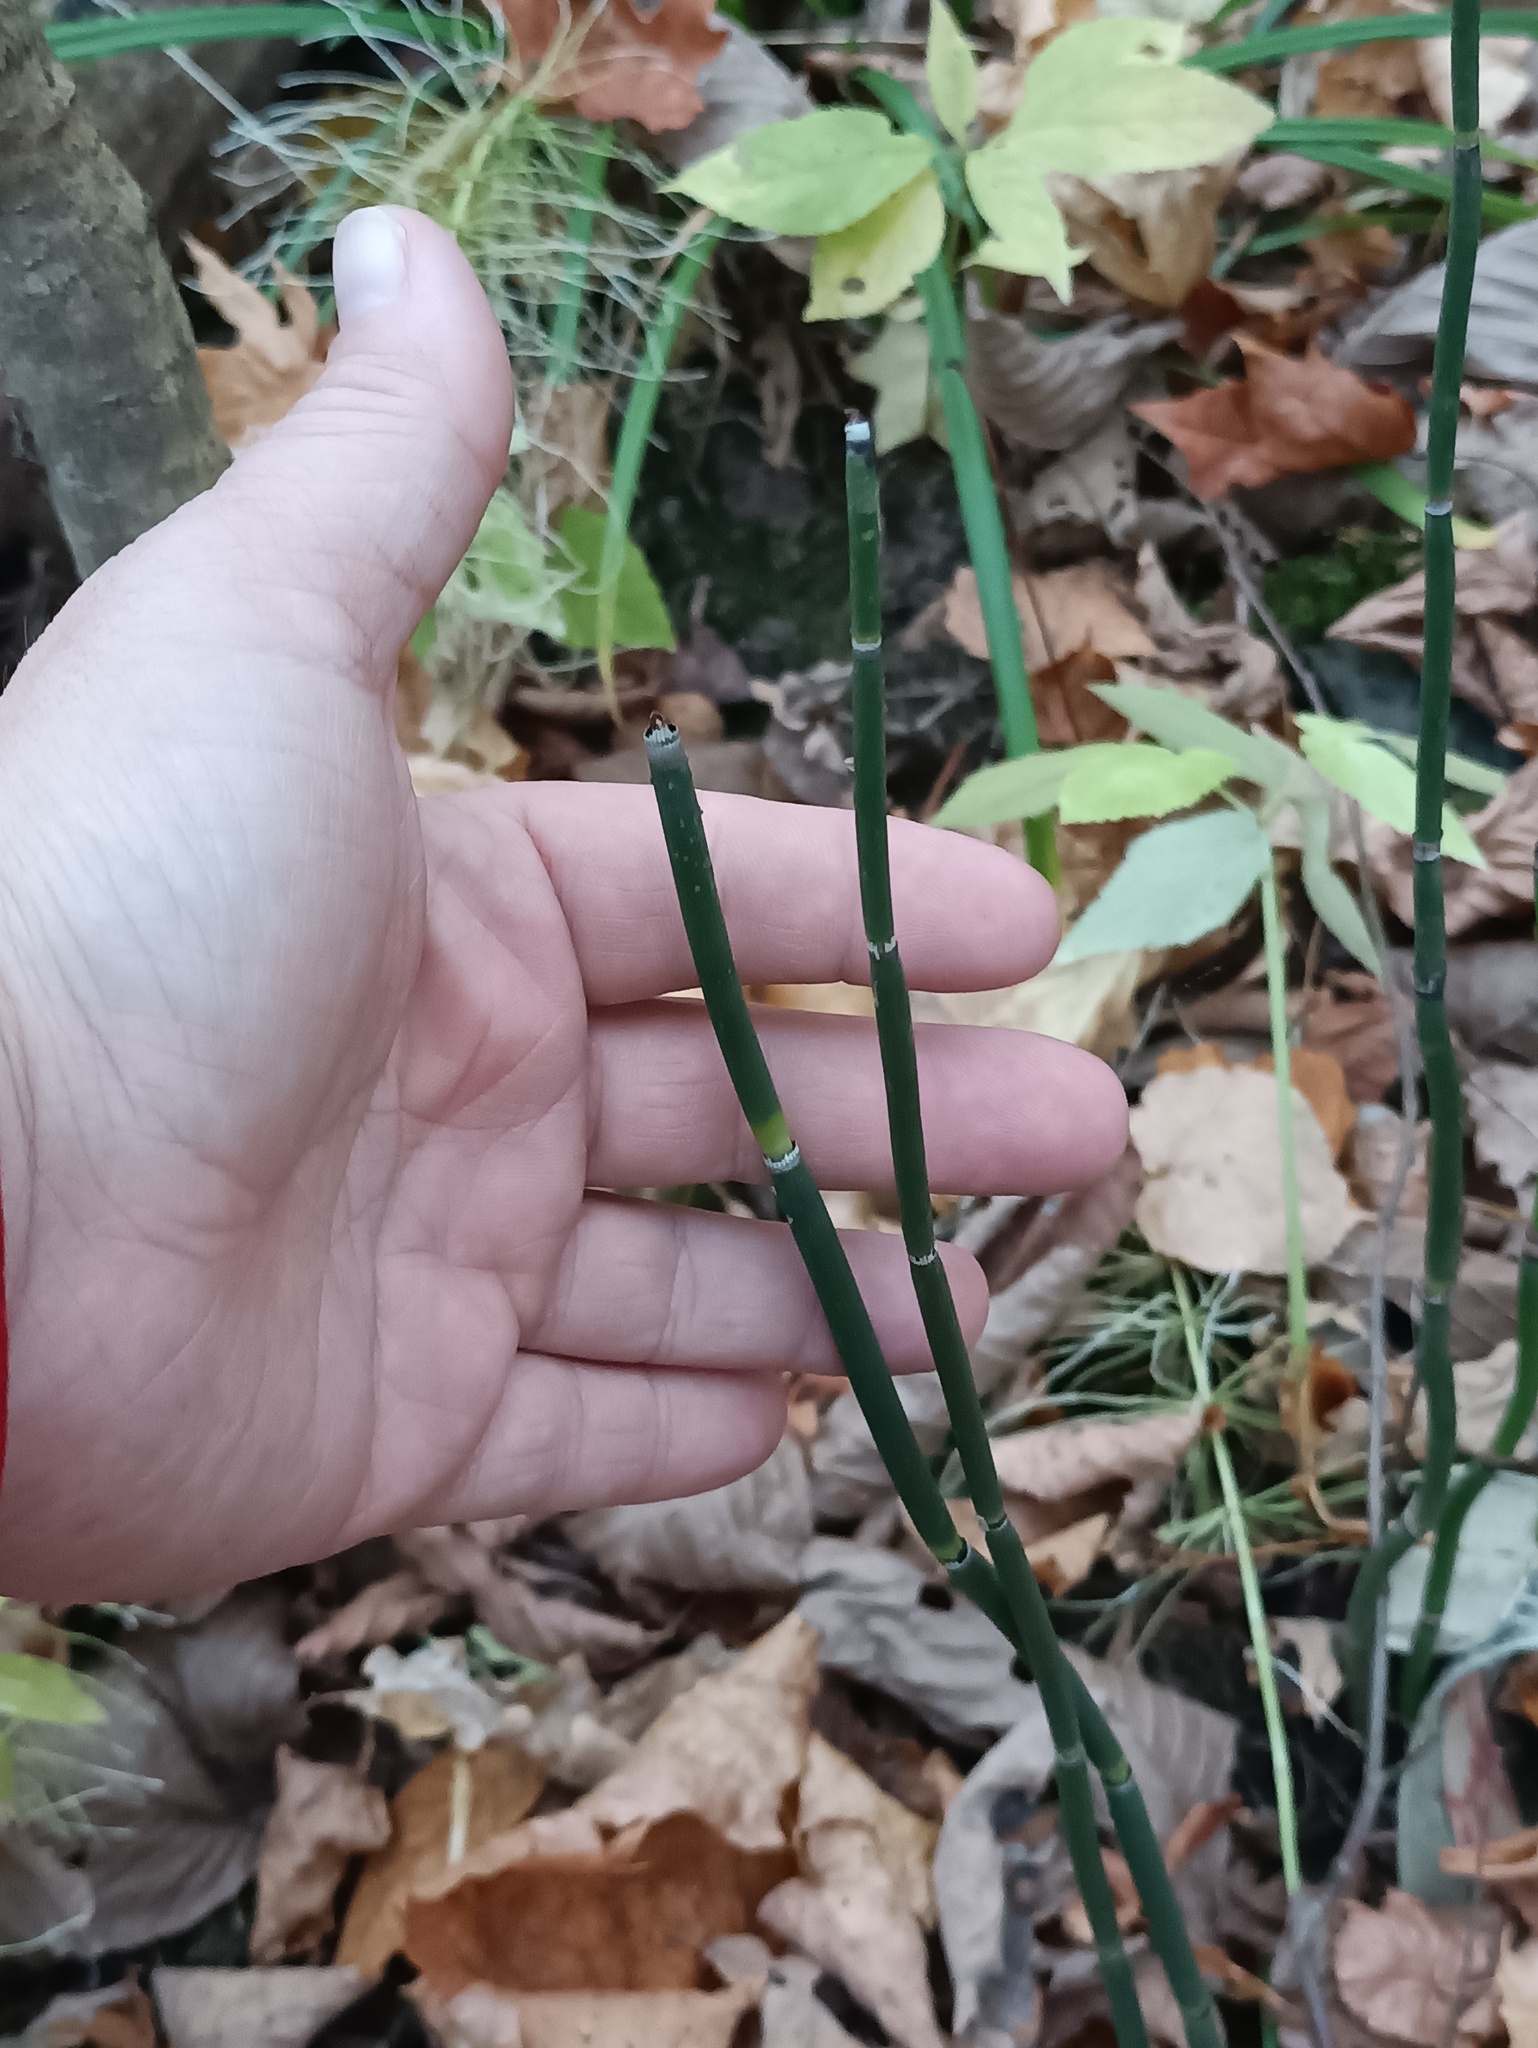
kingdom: Plantae
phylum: Tracheophyta
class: Polypodiopsida
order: Equisetales
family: Equisetaceae
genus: Equisetum
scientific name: Equisetum hyemale
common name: Rough horsetail
